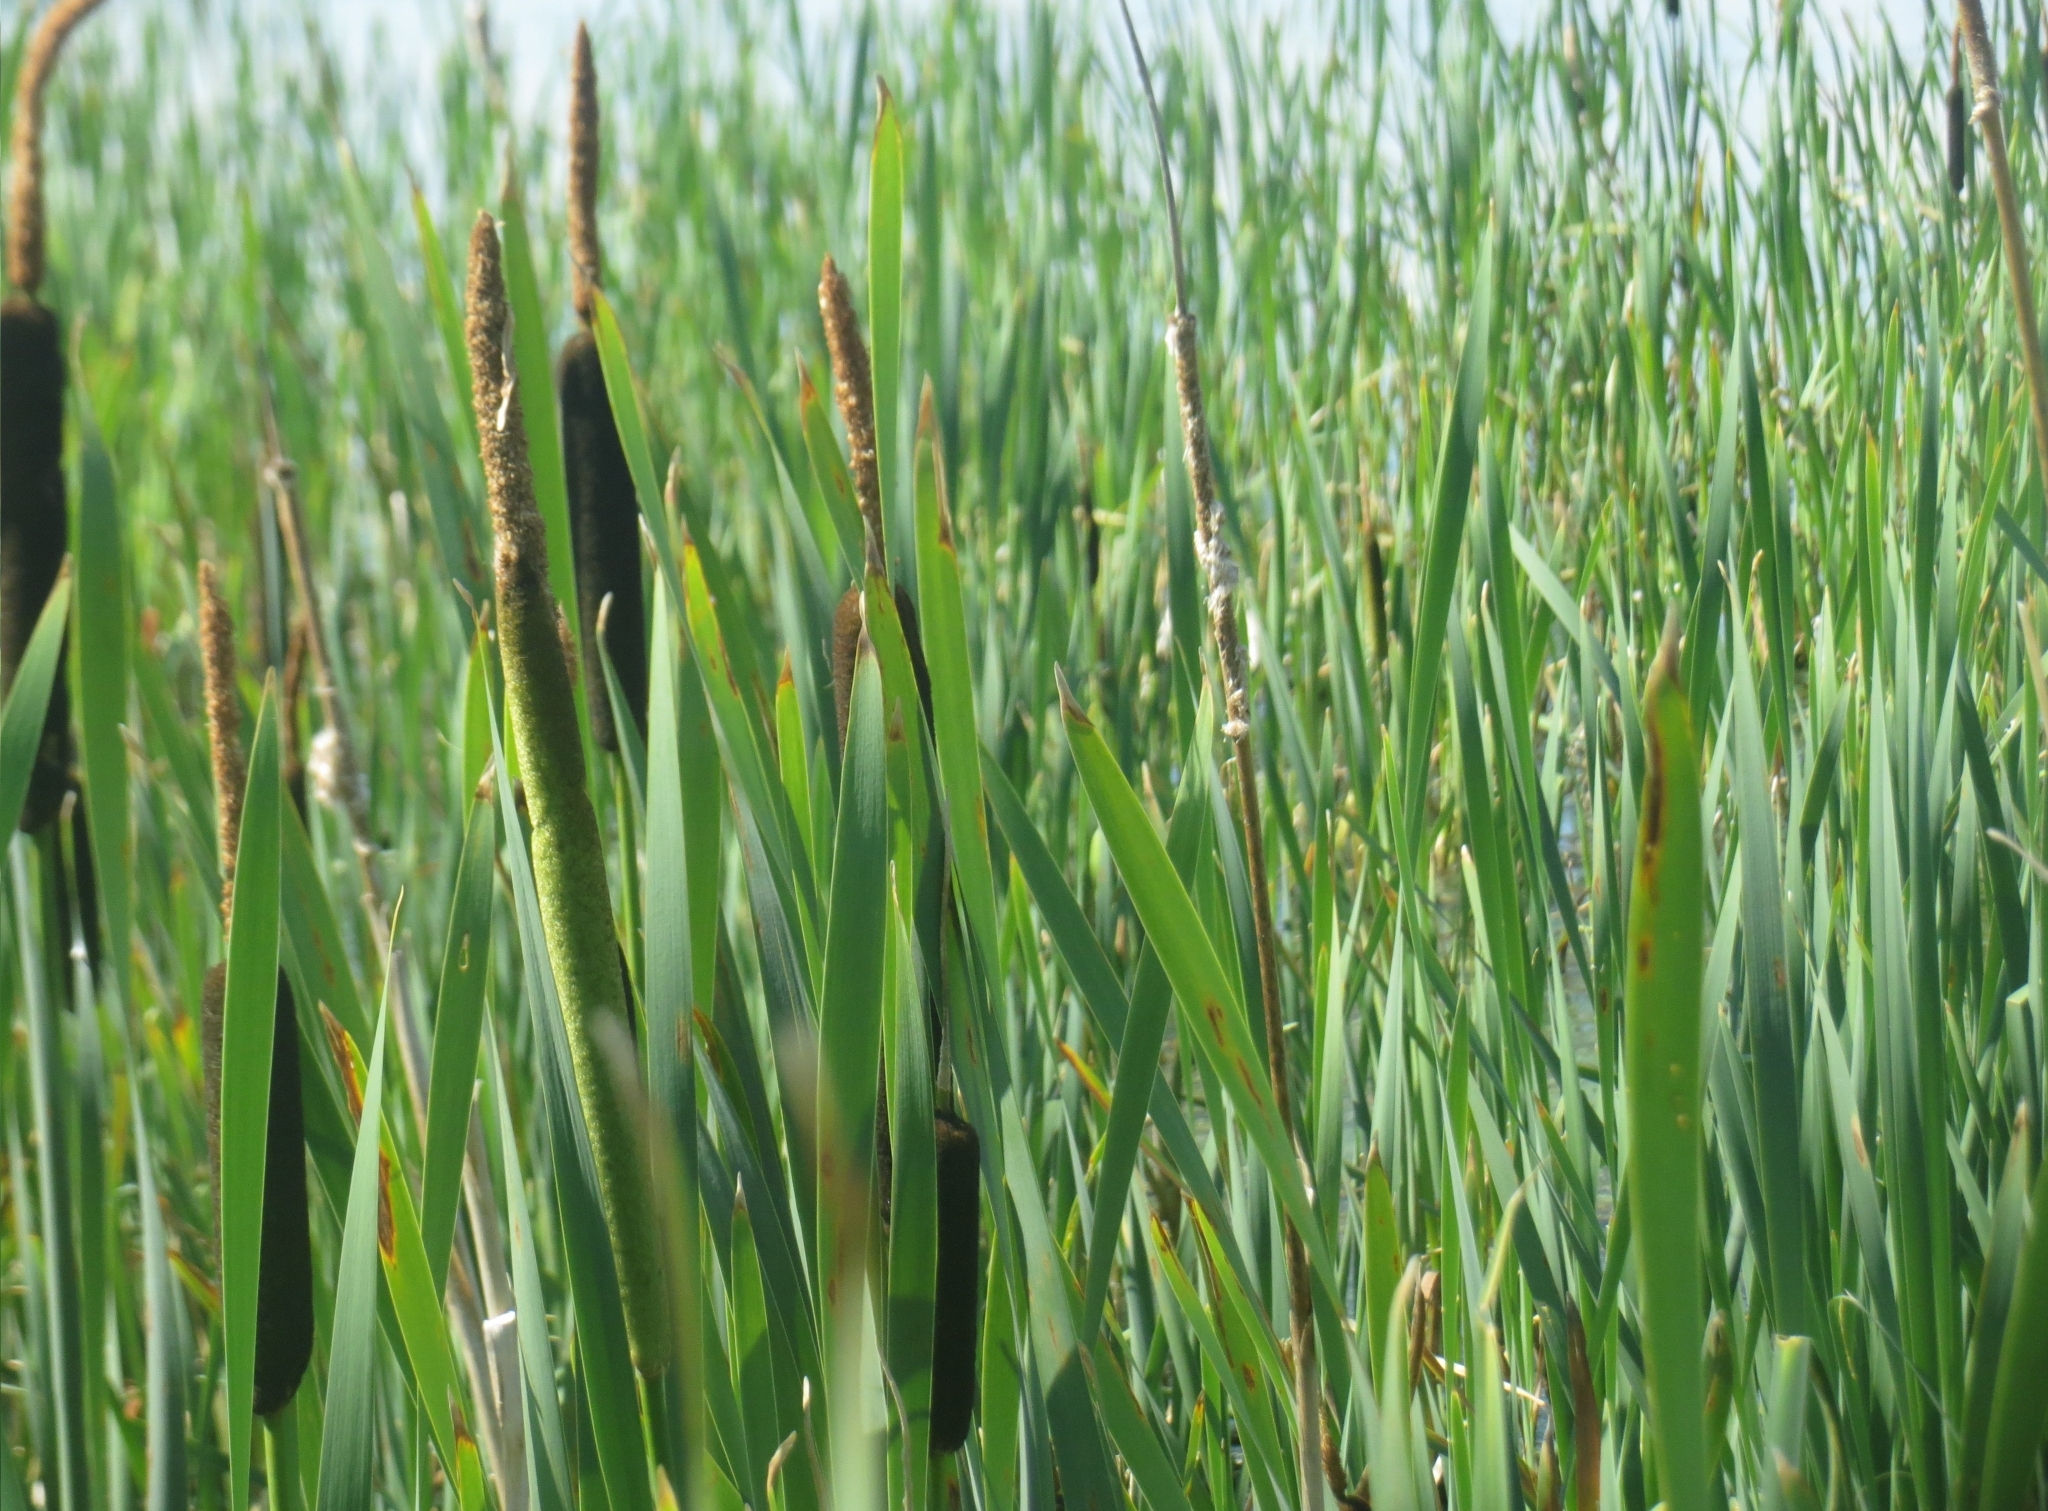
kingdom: Plantae
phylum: Tracheophyta
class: Liliopsida
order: Poales
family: Typhaceae
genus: Typha
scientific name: Typha latifolia
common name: Broadleaf cattail
